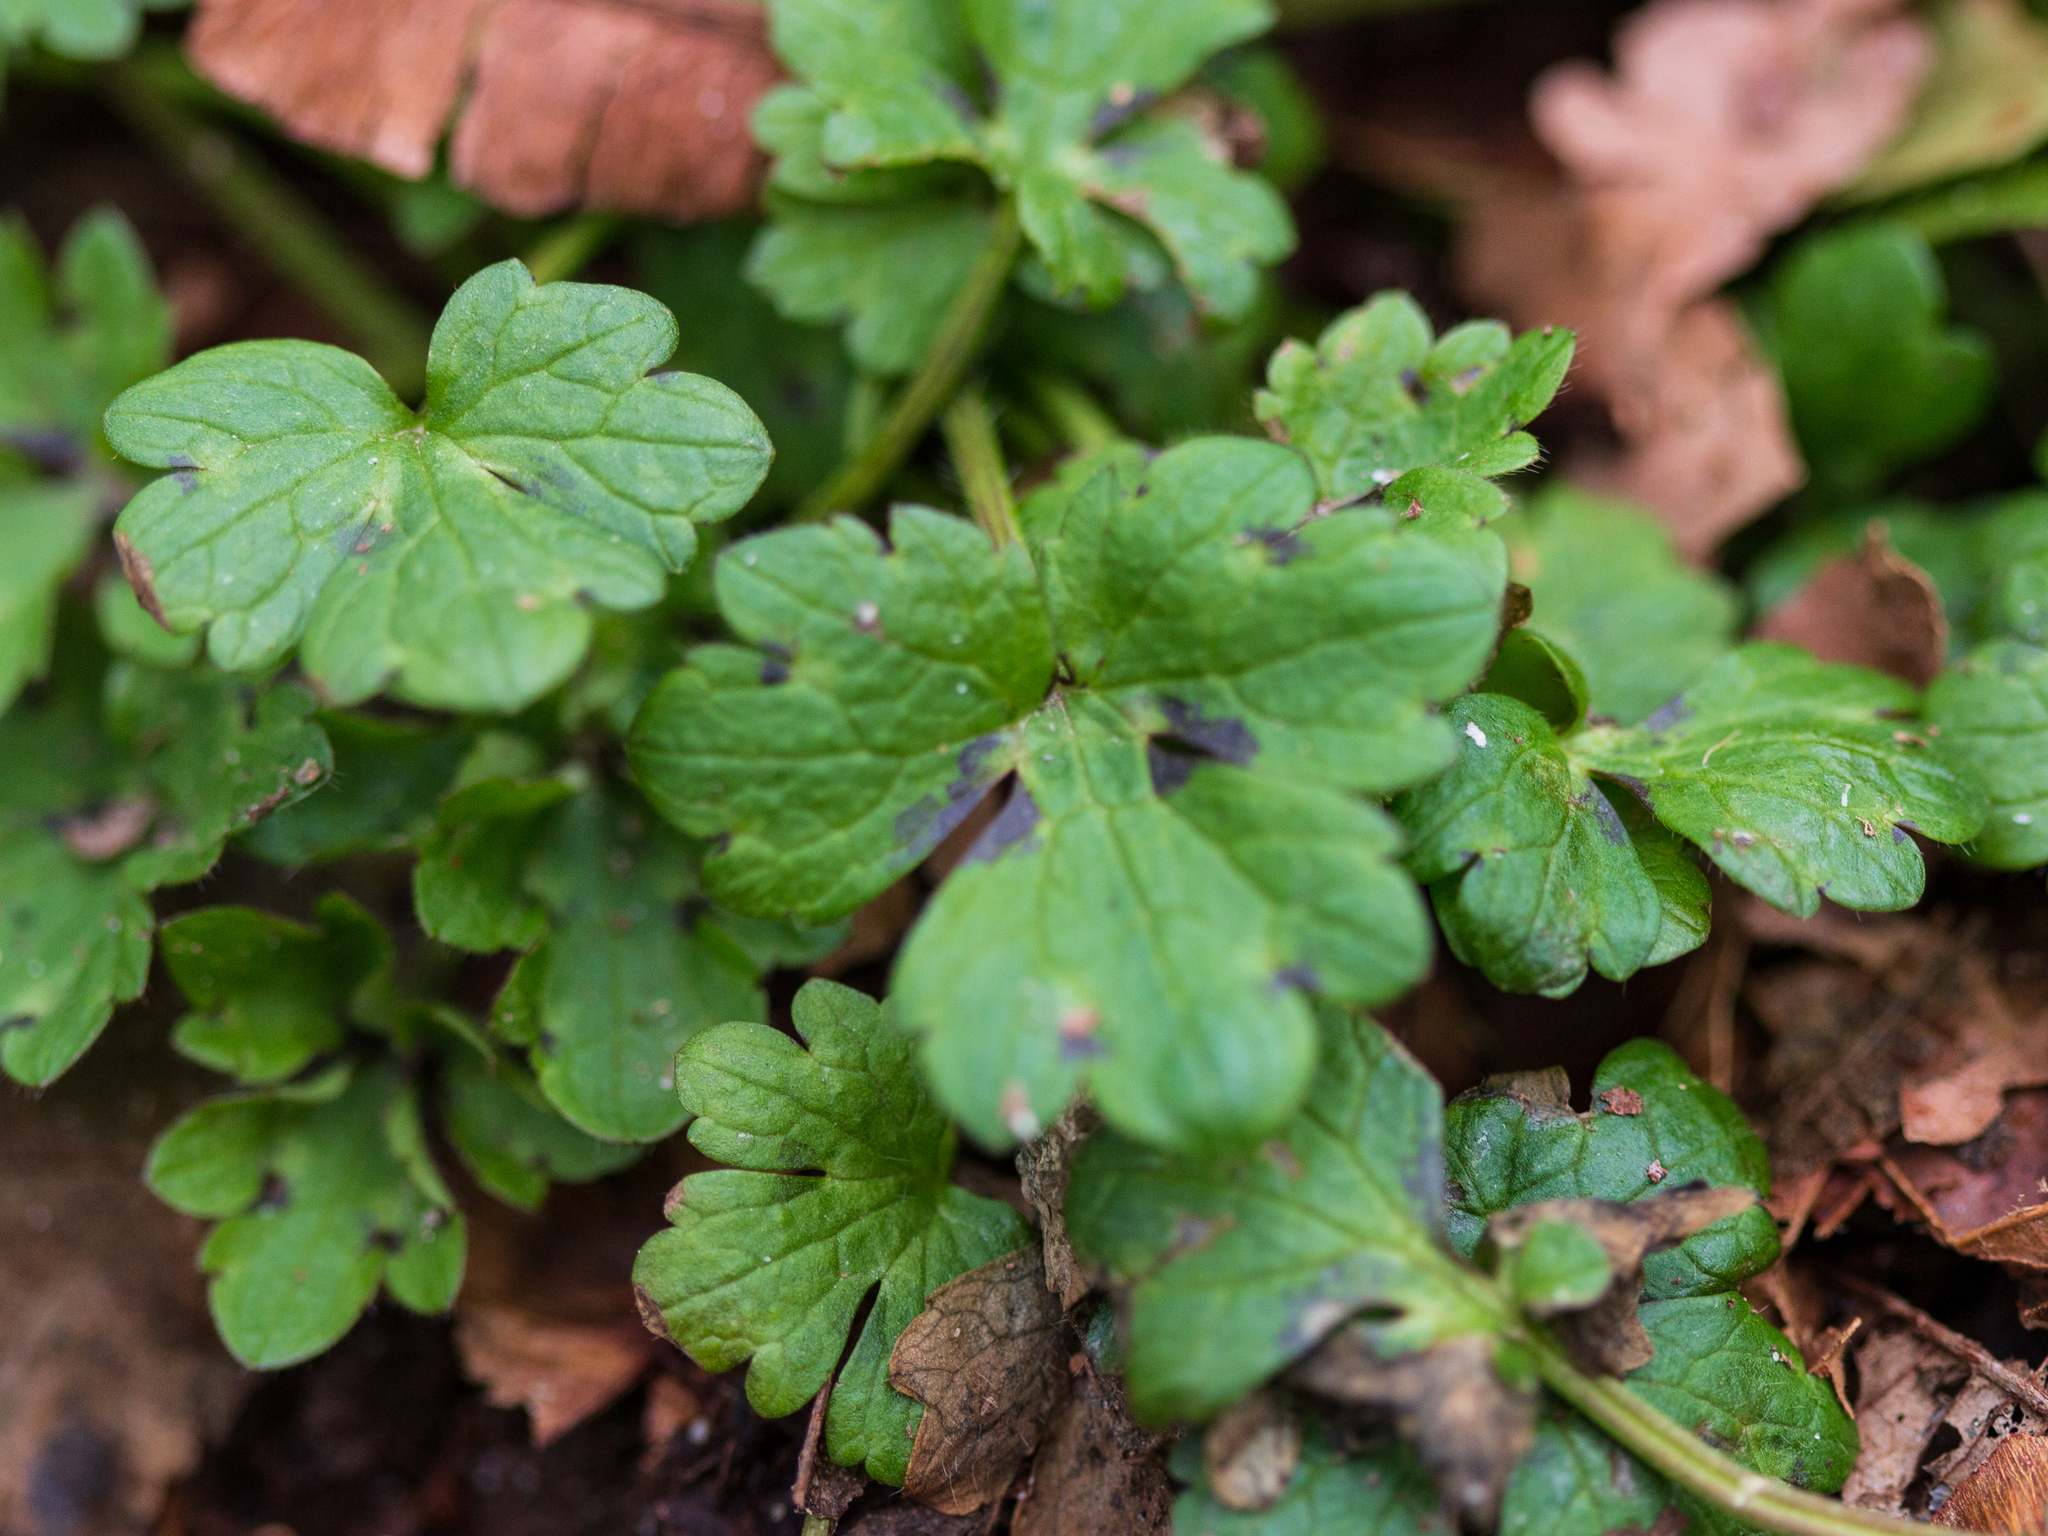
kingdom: Plantae
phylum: Tracheophyta
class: Magnoliopsida
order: Ranunculales
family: Ranunculaceae
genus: Ranunculus
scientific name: Ranunculus repens
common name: Creeping buttercup
